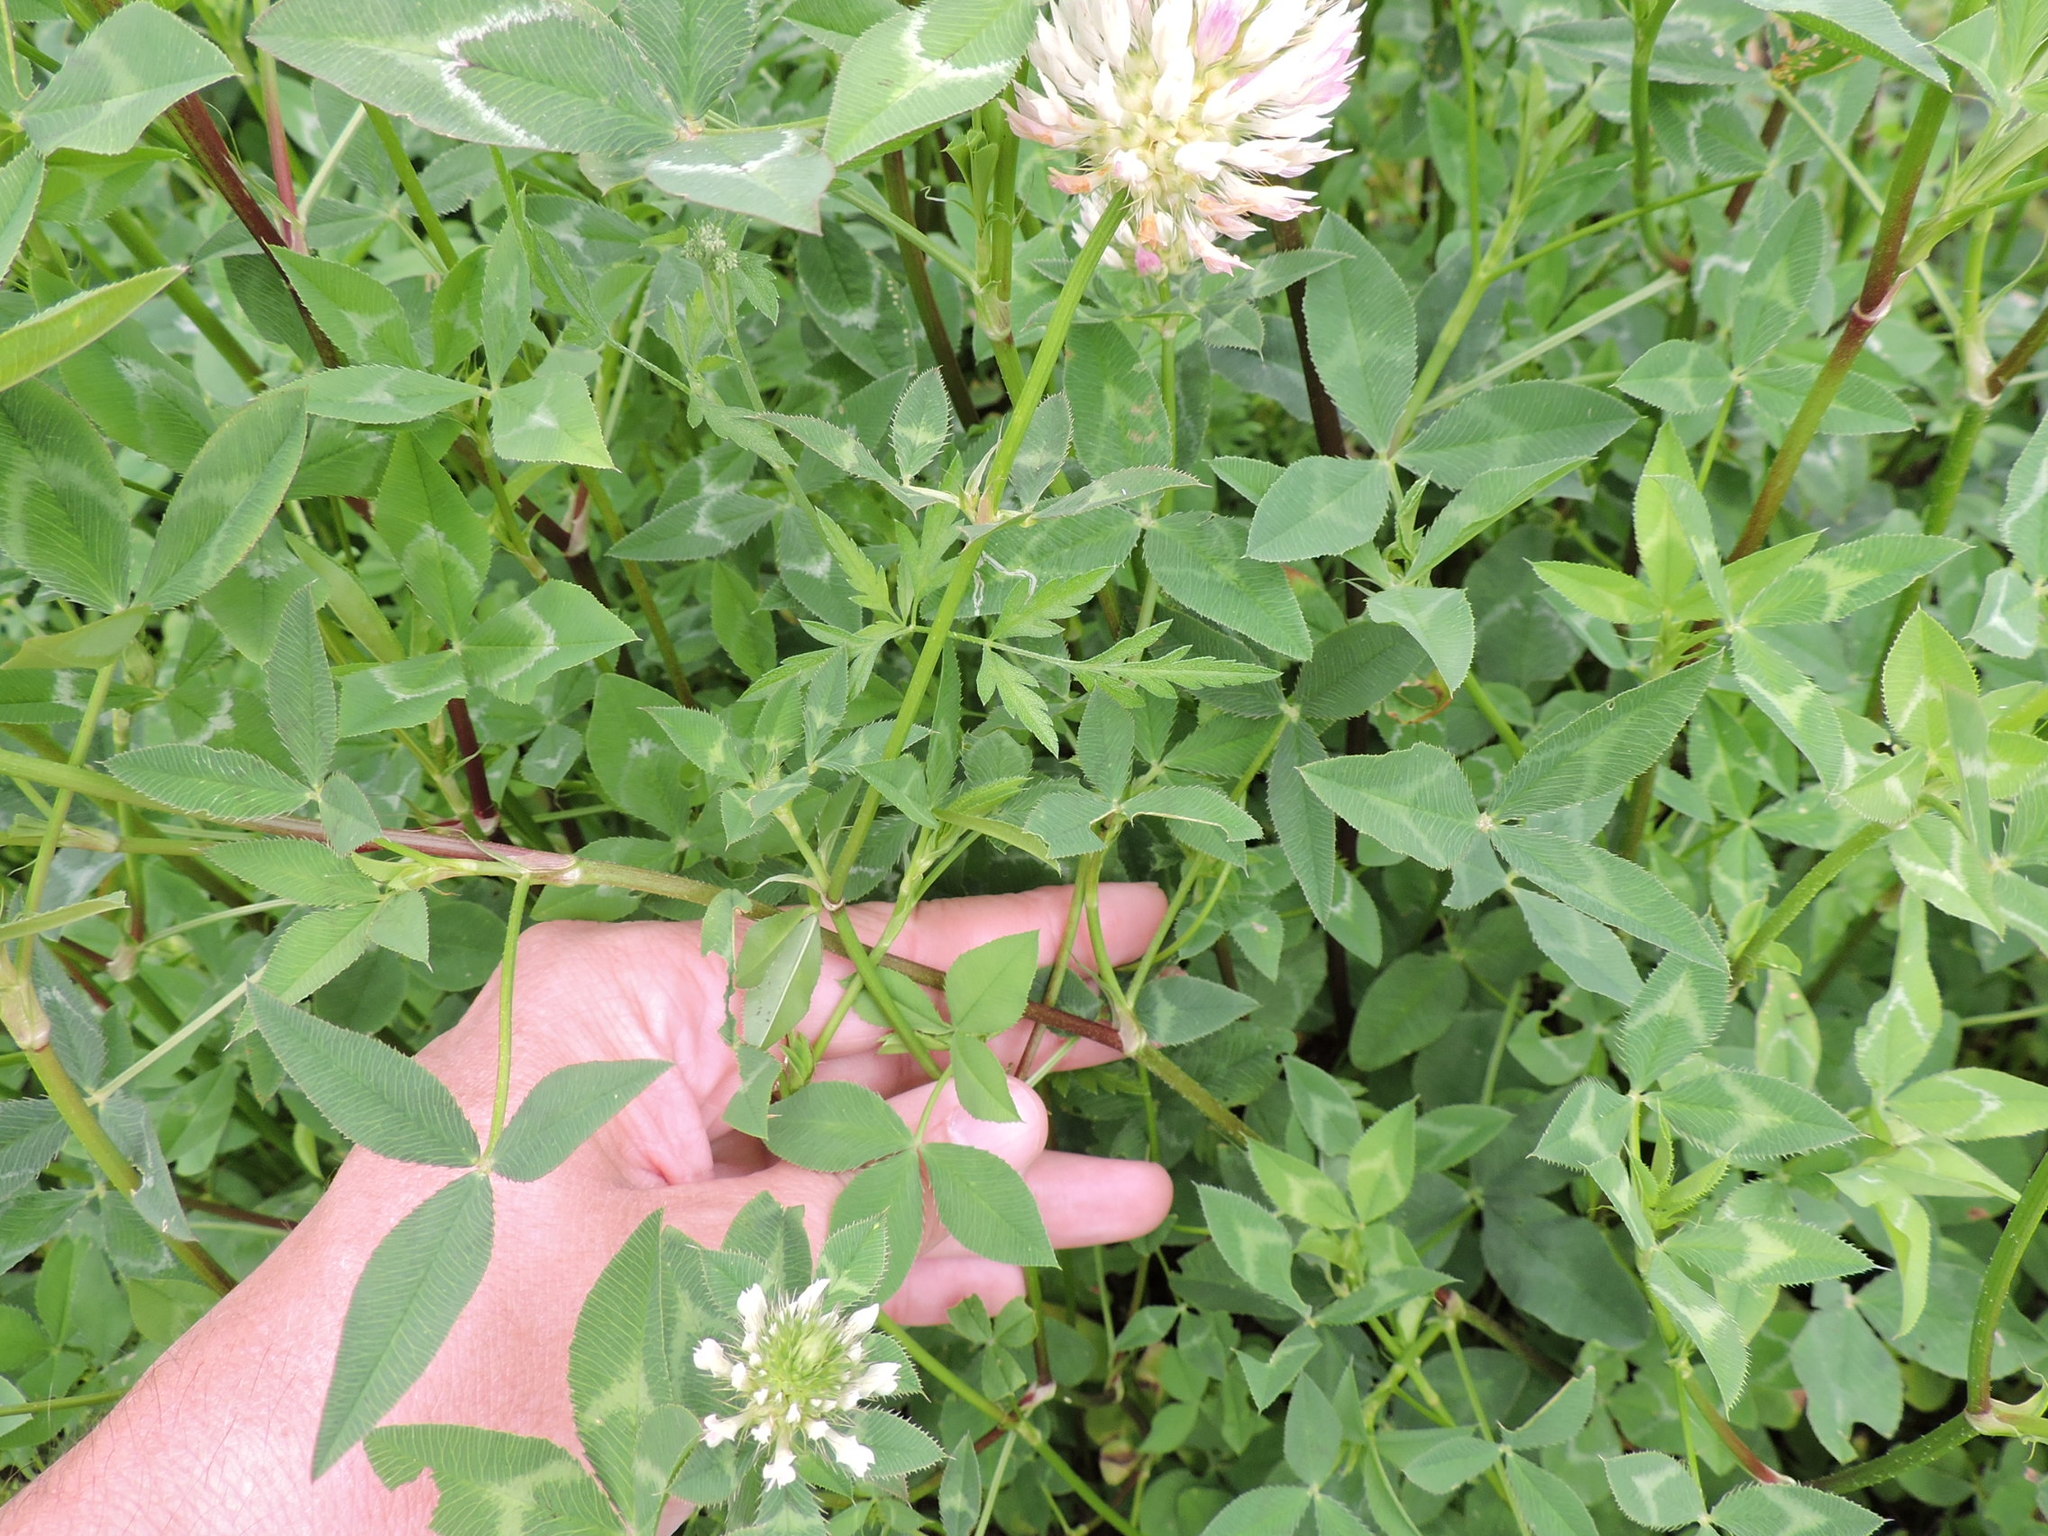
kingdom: Plantae
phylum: Tracheophyta
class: Magnoliopsida
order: Fabales
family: Fabaceae
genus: Trifolium
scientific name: Trifolium vesiculosum
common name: Arrowleaf clover
